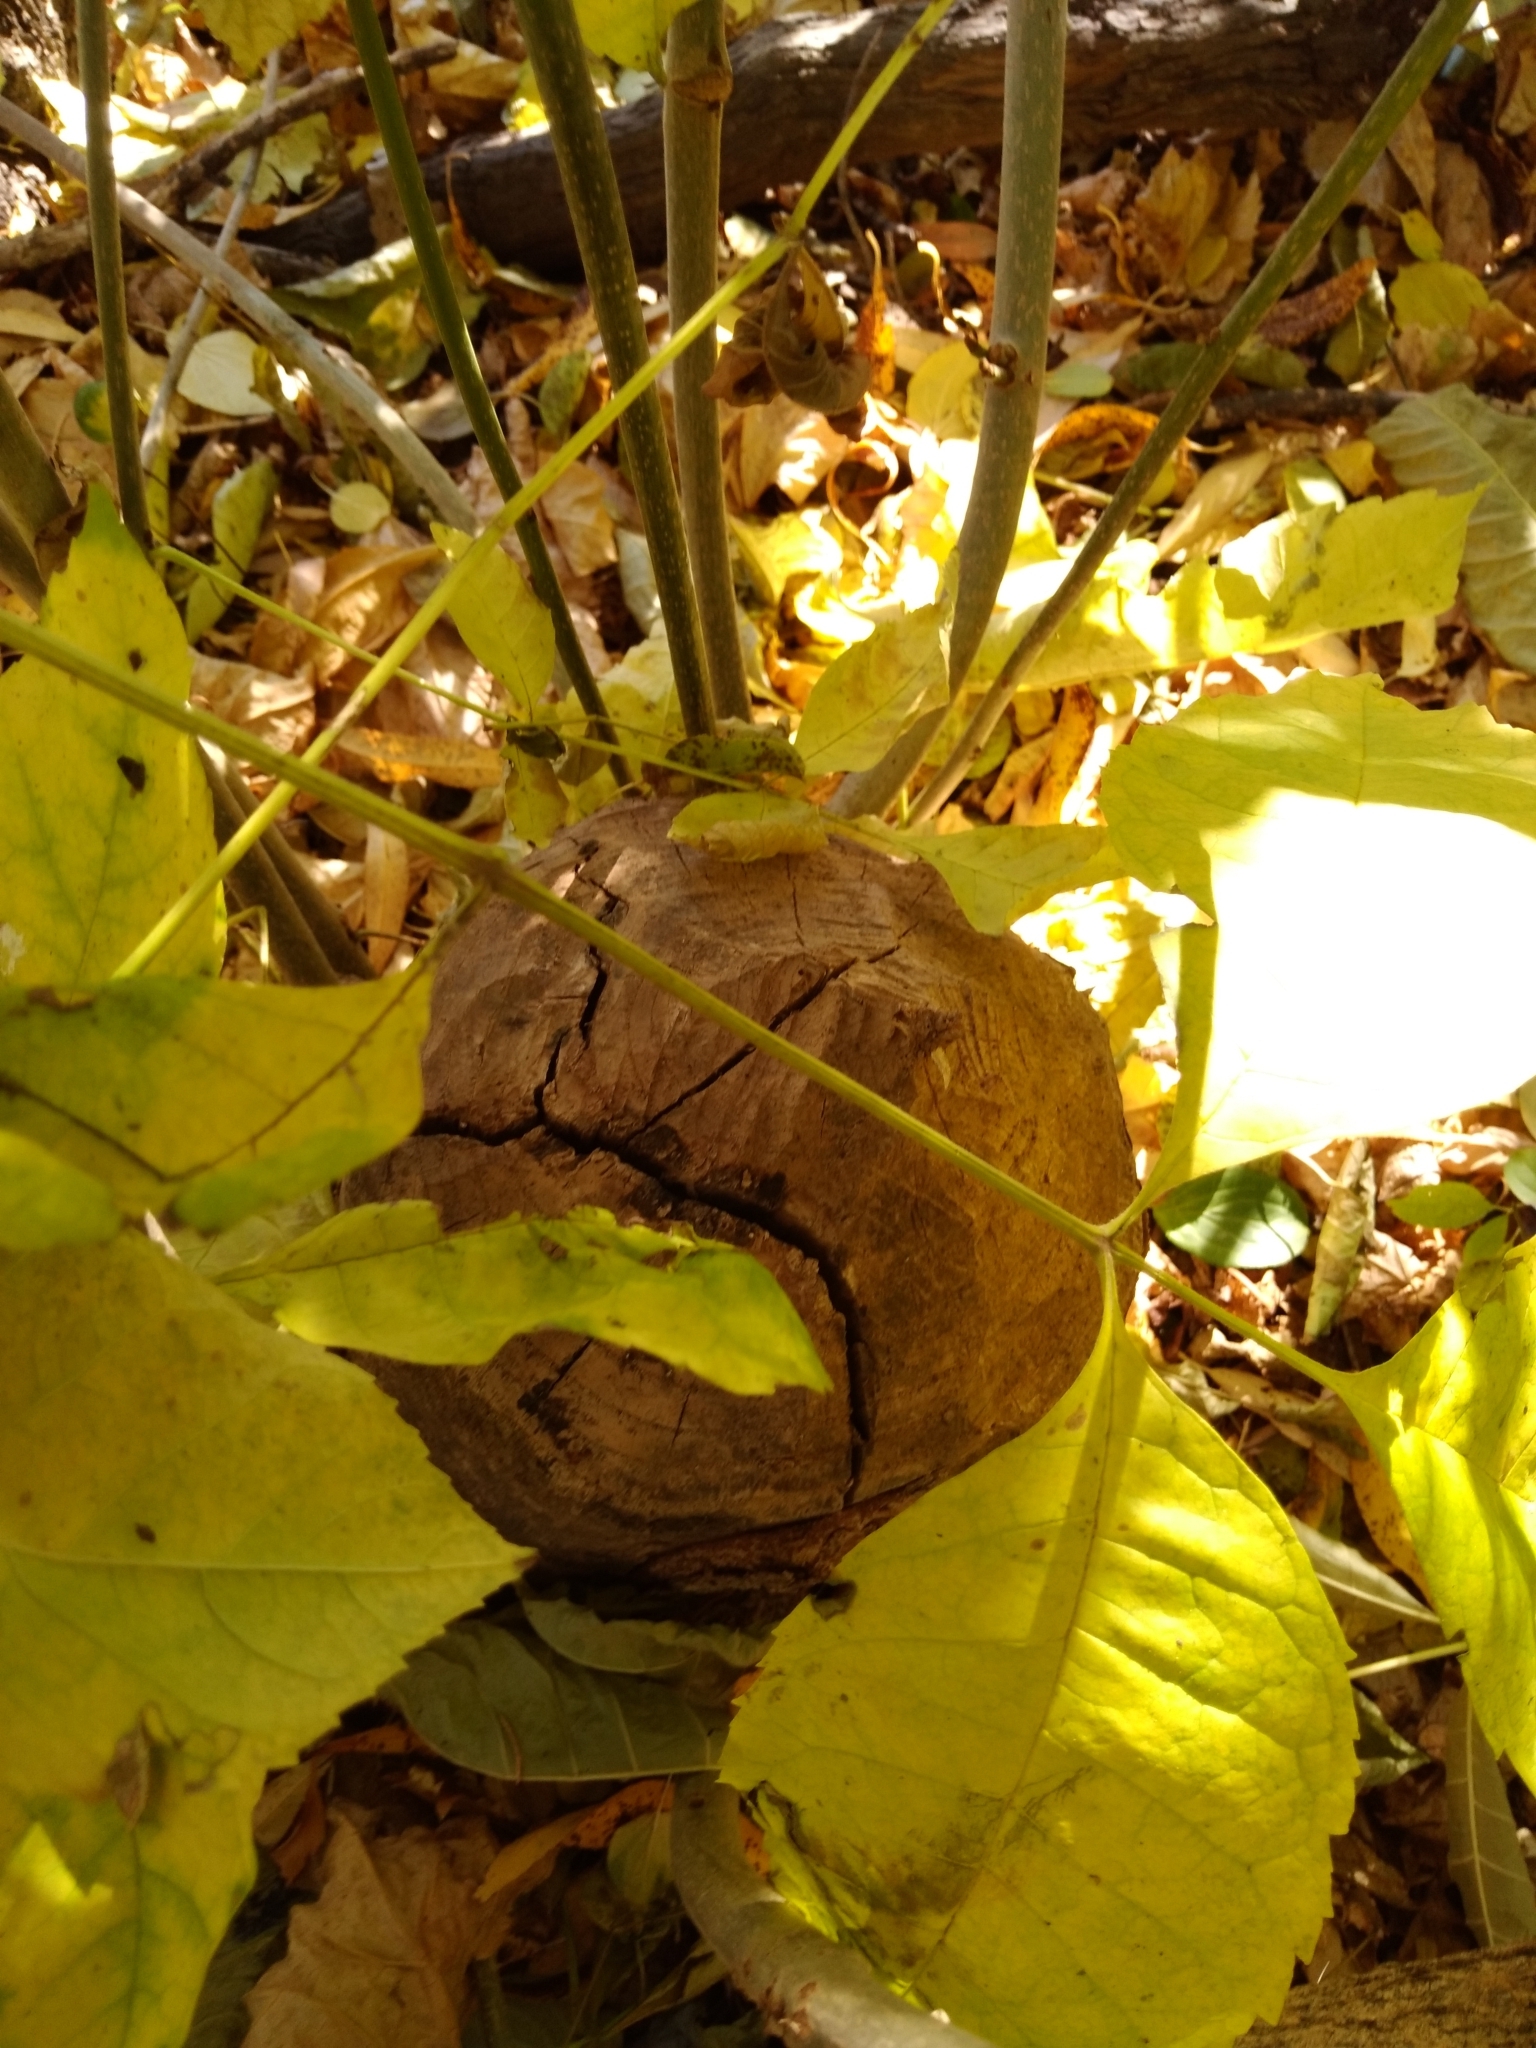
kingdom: Animalia
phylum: Chordata
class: Mammalia
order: Rodentia
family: Castoridae
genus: Castor
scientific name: Castor canadensis
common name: American beaver
